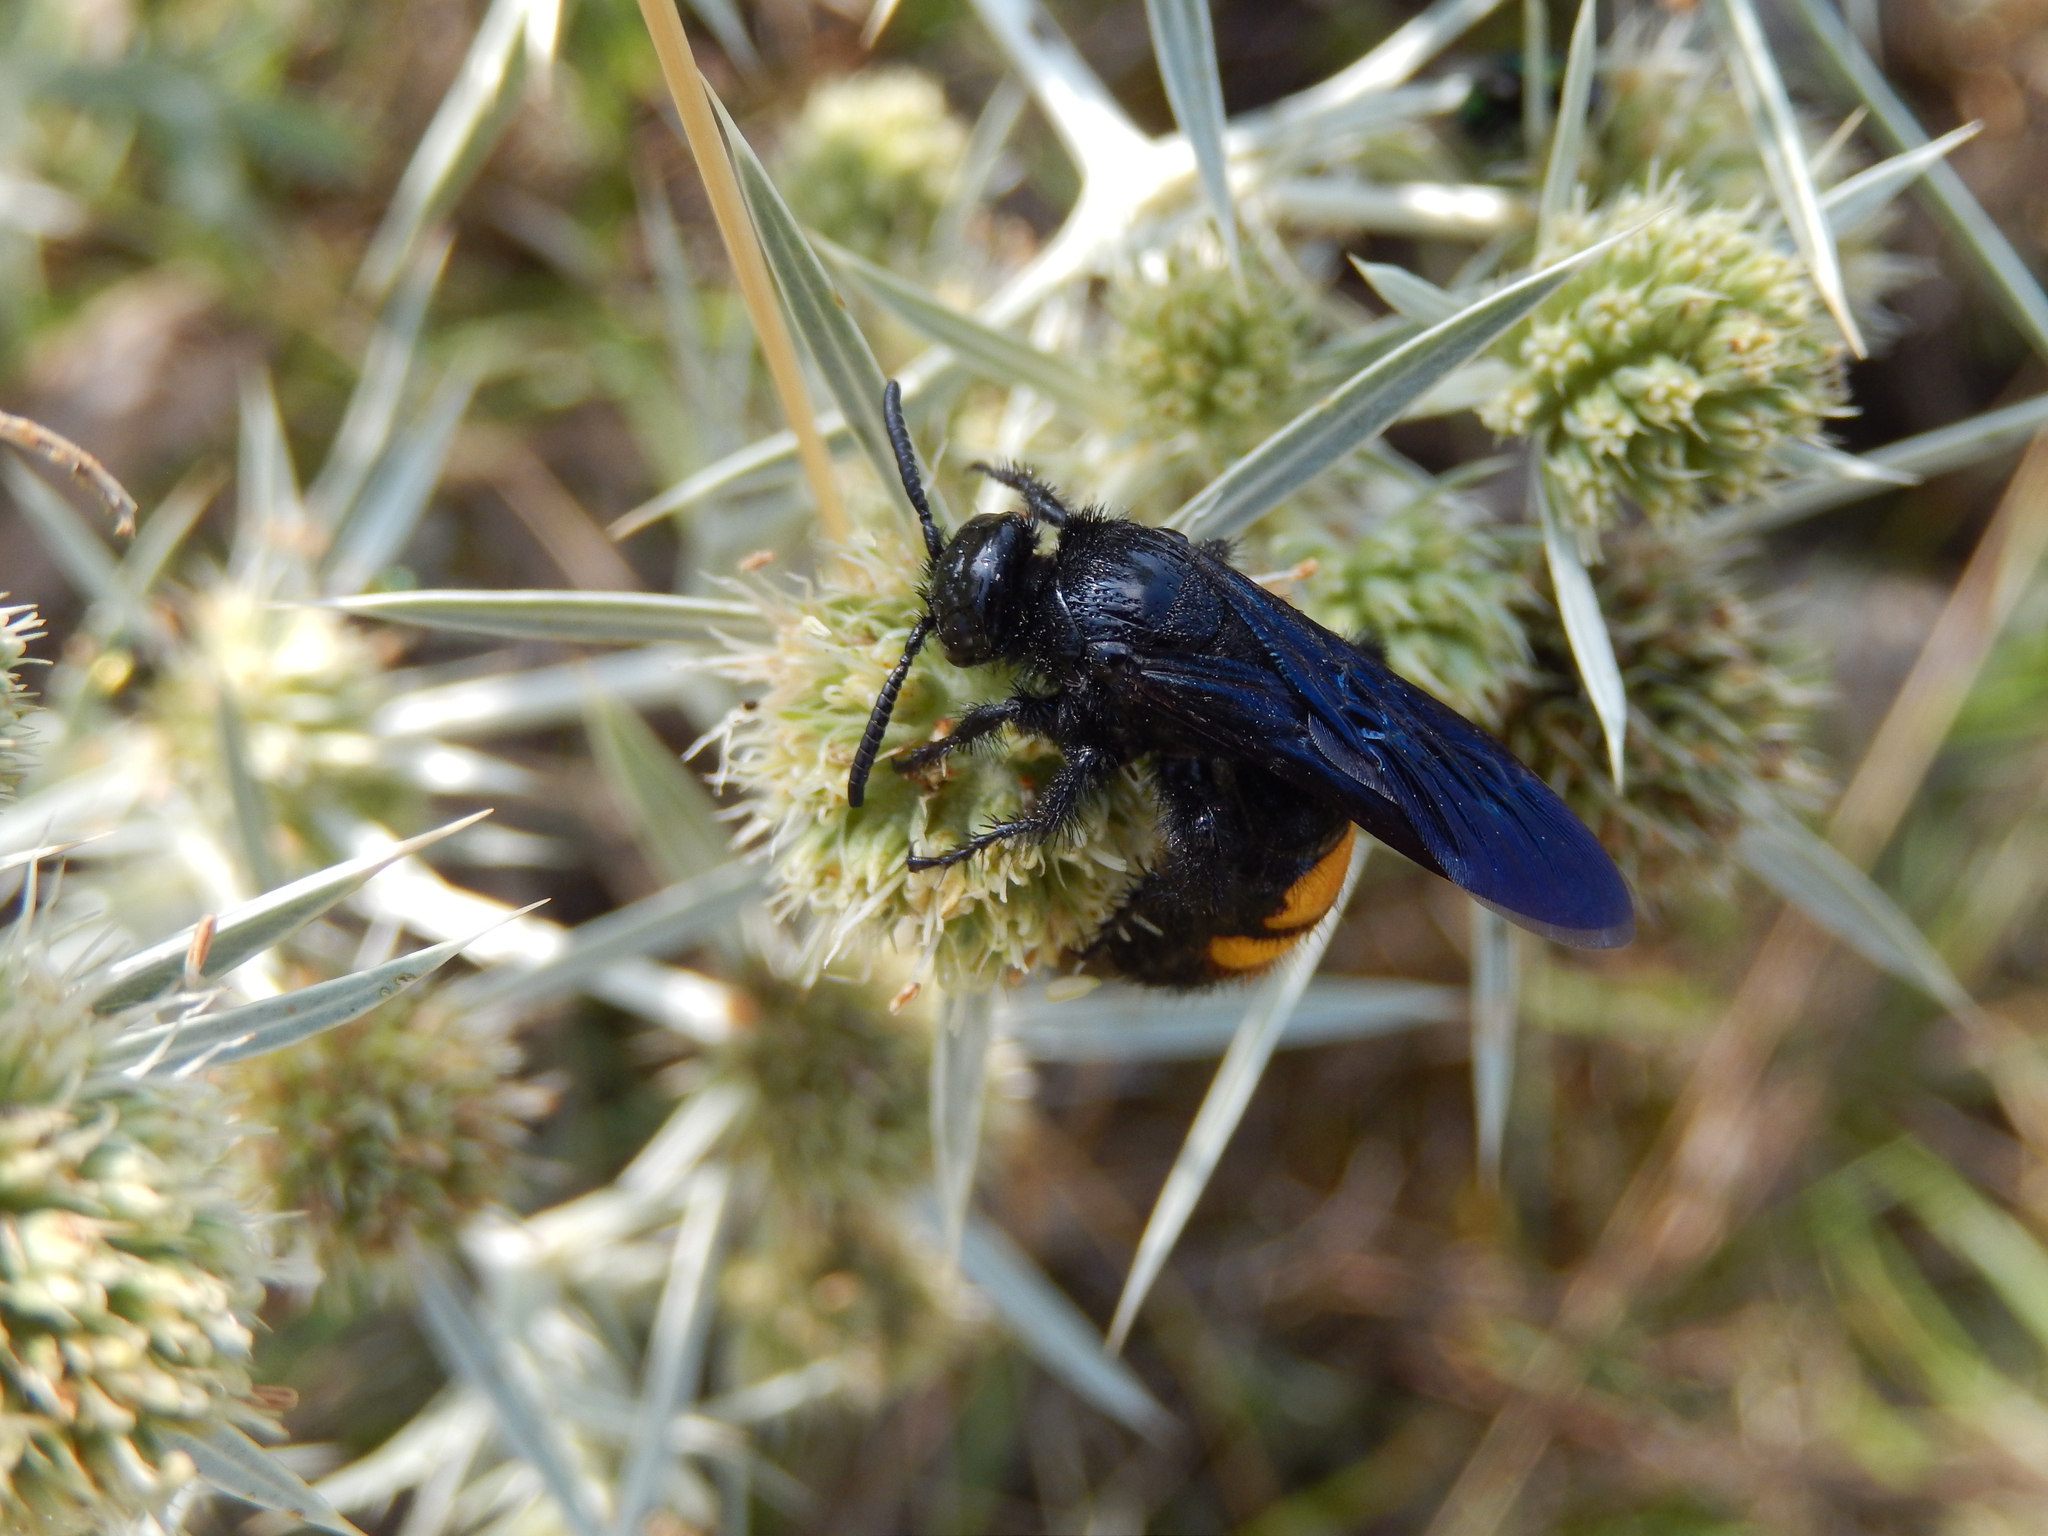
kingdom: Animalia
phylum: Arthropoda
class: Insecta
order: Hymenoptera
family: Scoliidae
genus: Scolia
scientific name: Scolia hirta
